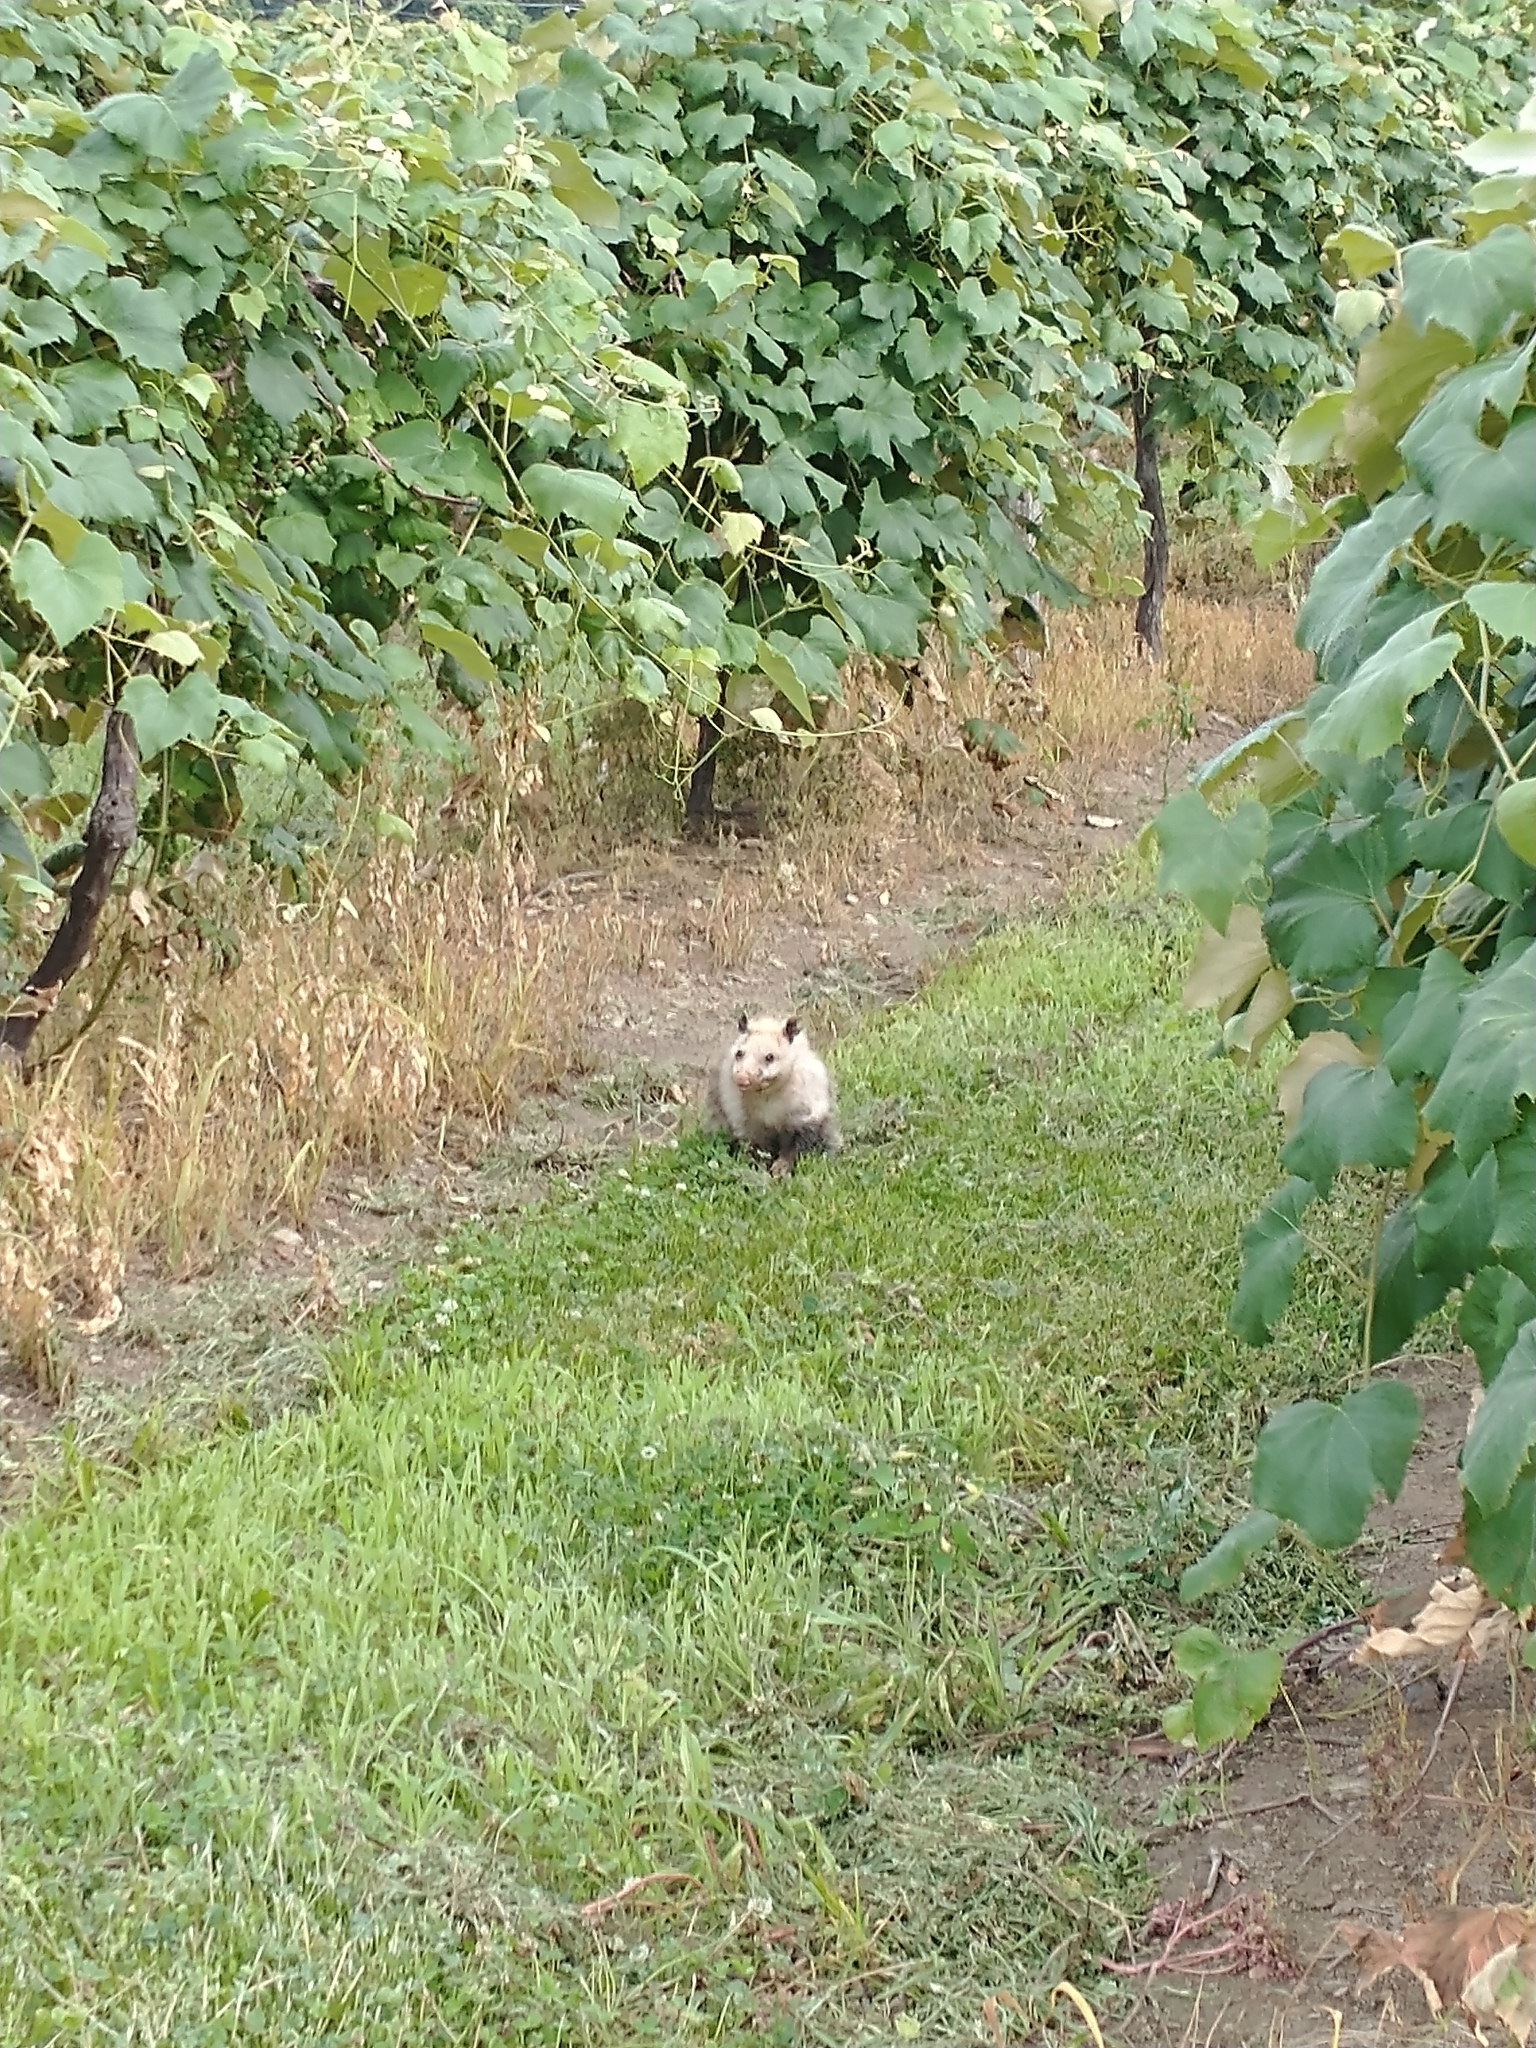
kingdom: Animalia
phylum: Chordata
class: Mammalia
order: Didelphimorphia
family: Didelphidae
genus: Didelphis
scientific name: Didelphis virginiana
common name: Virginia opossum
